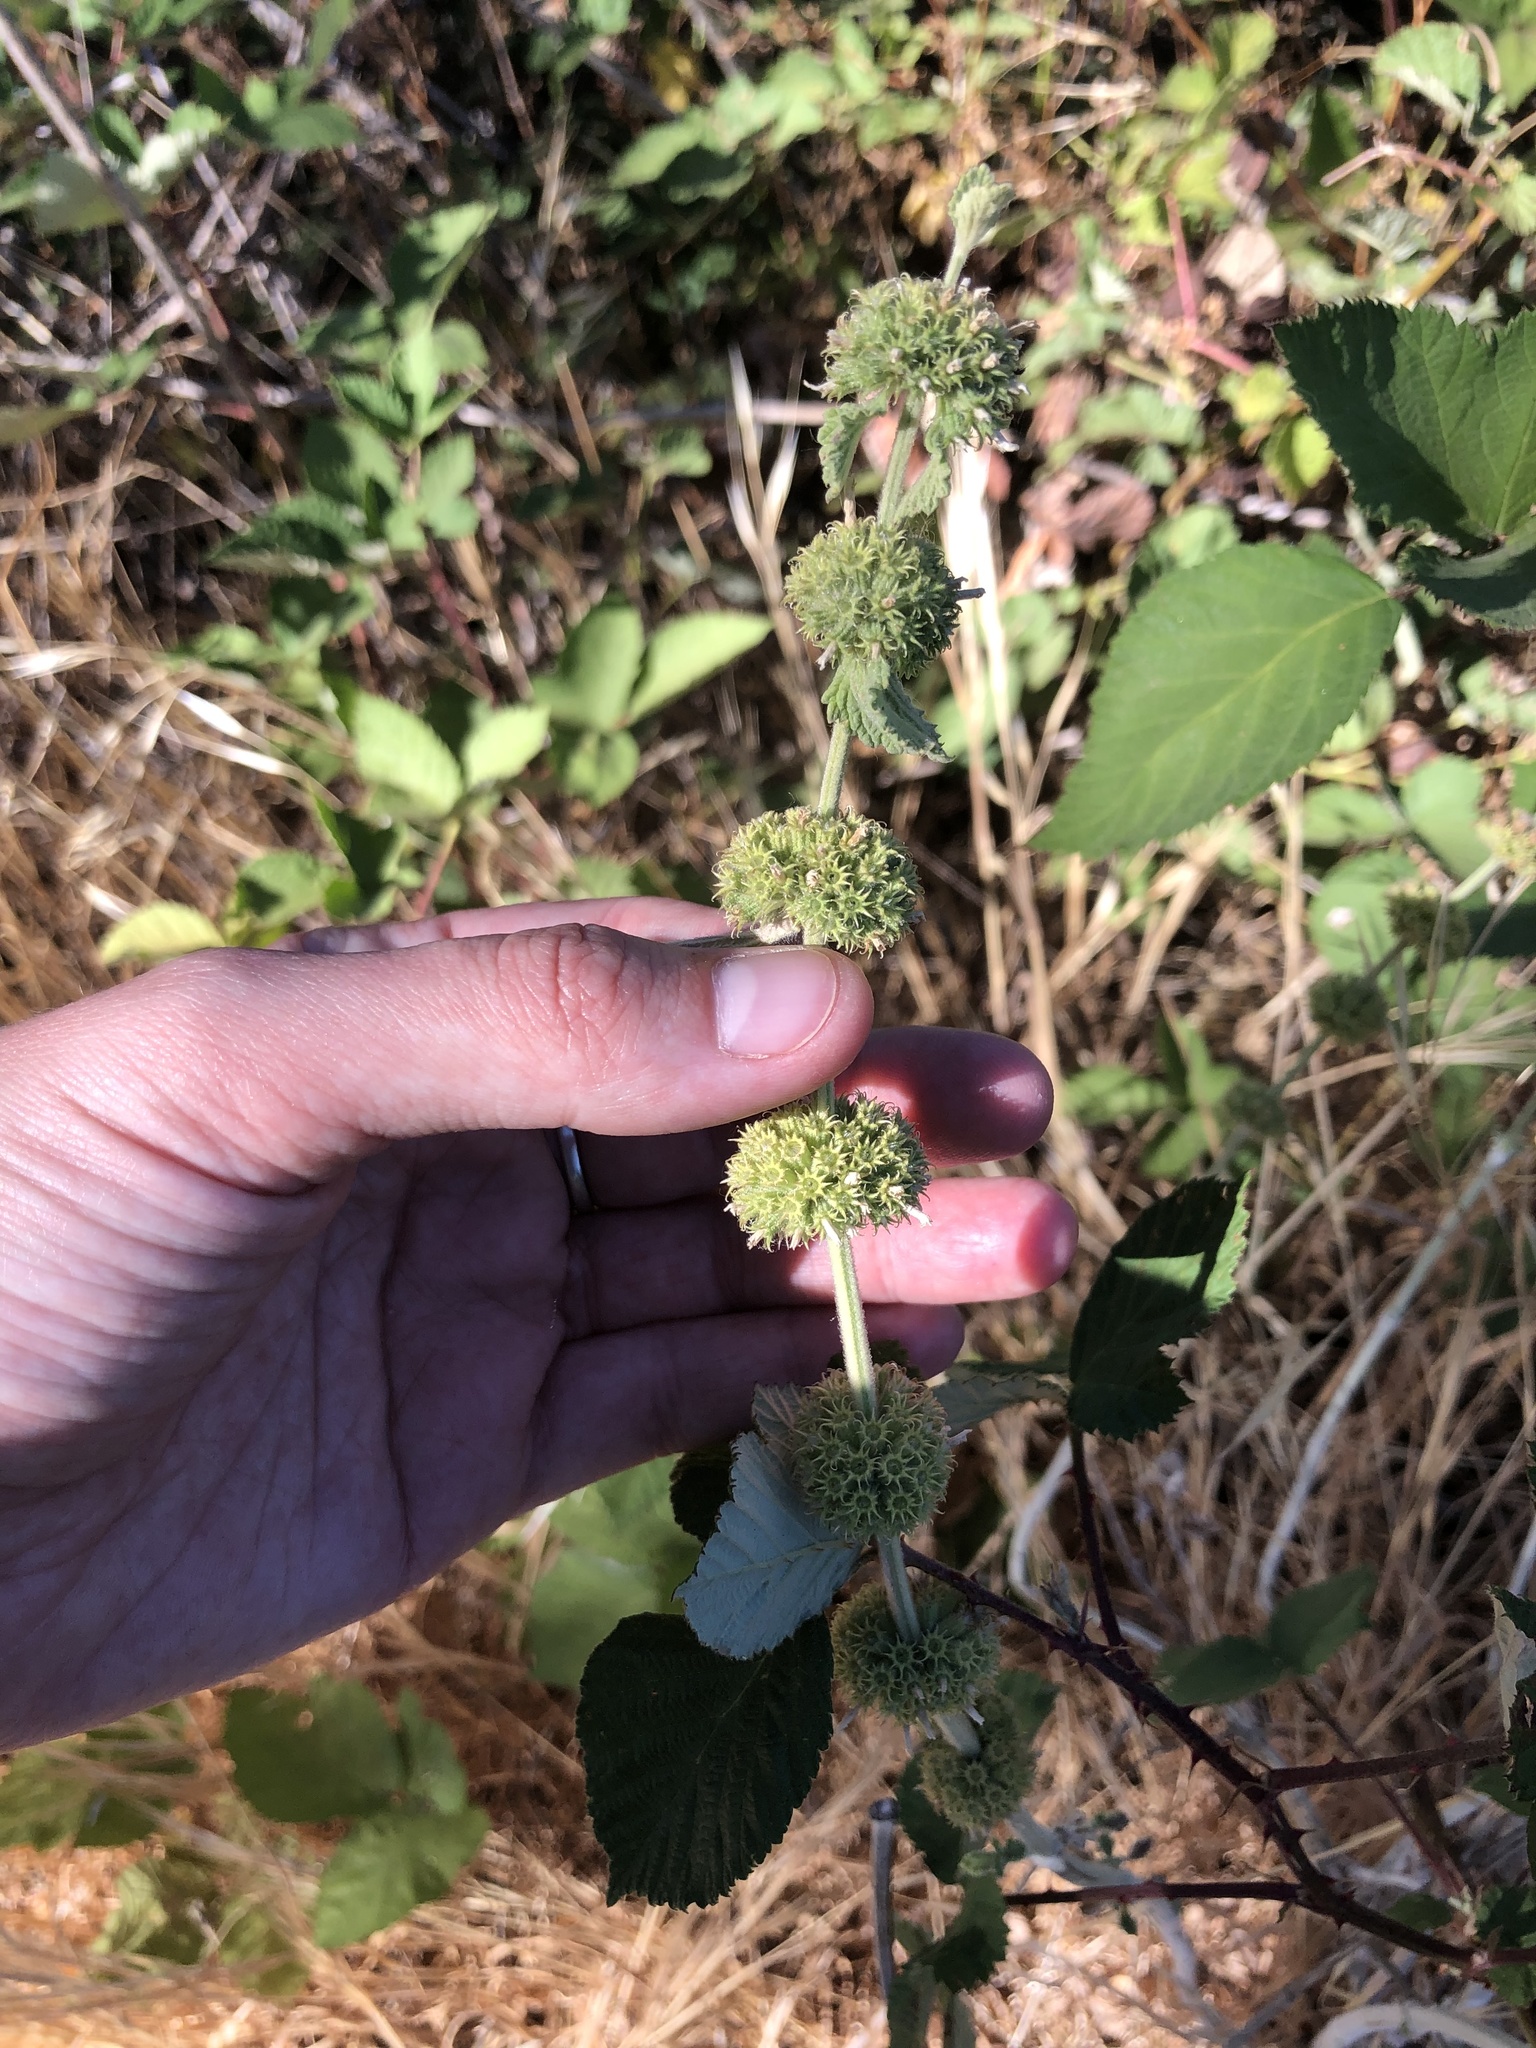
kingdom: Plantae
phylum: Tracheophyta
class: Magnoliopsida
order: Lamiales
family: Lamiaceae
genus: Marrubium
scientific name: Marrubium vulgare
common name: Horehound
